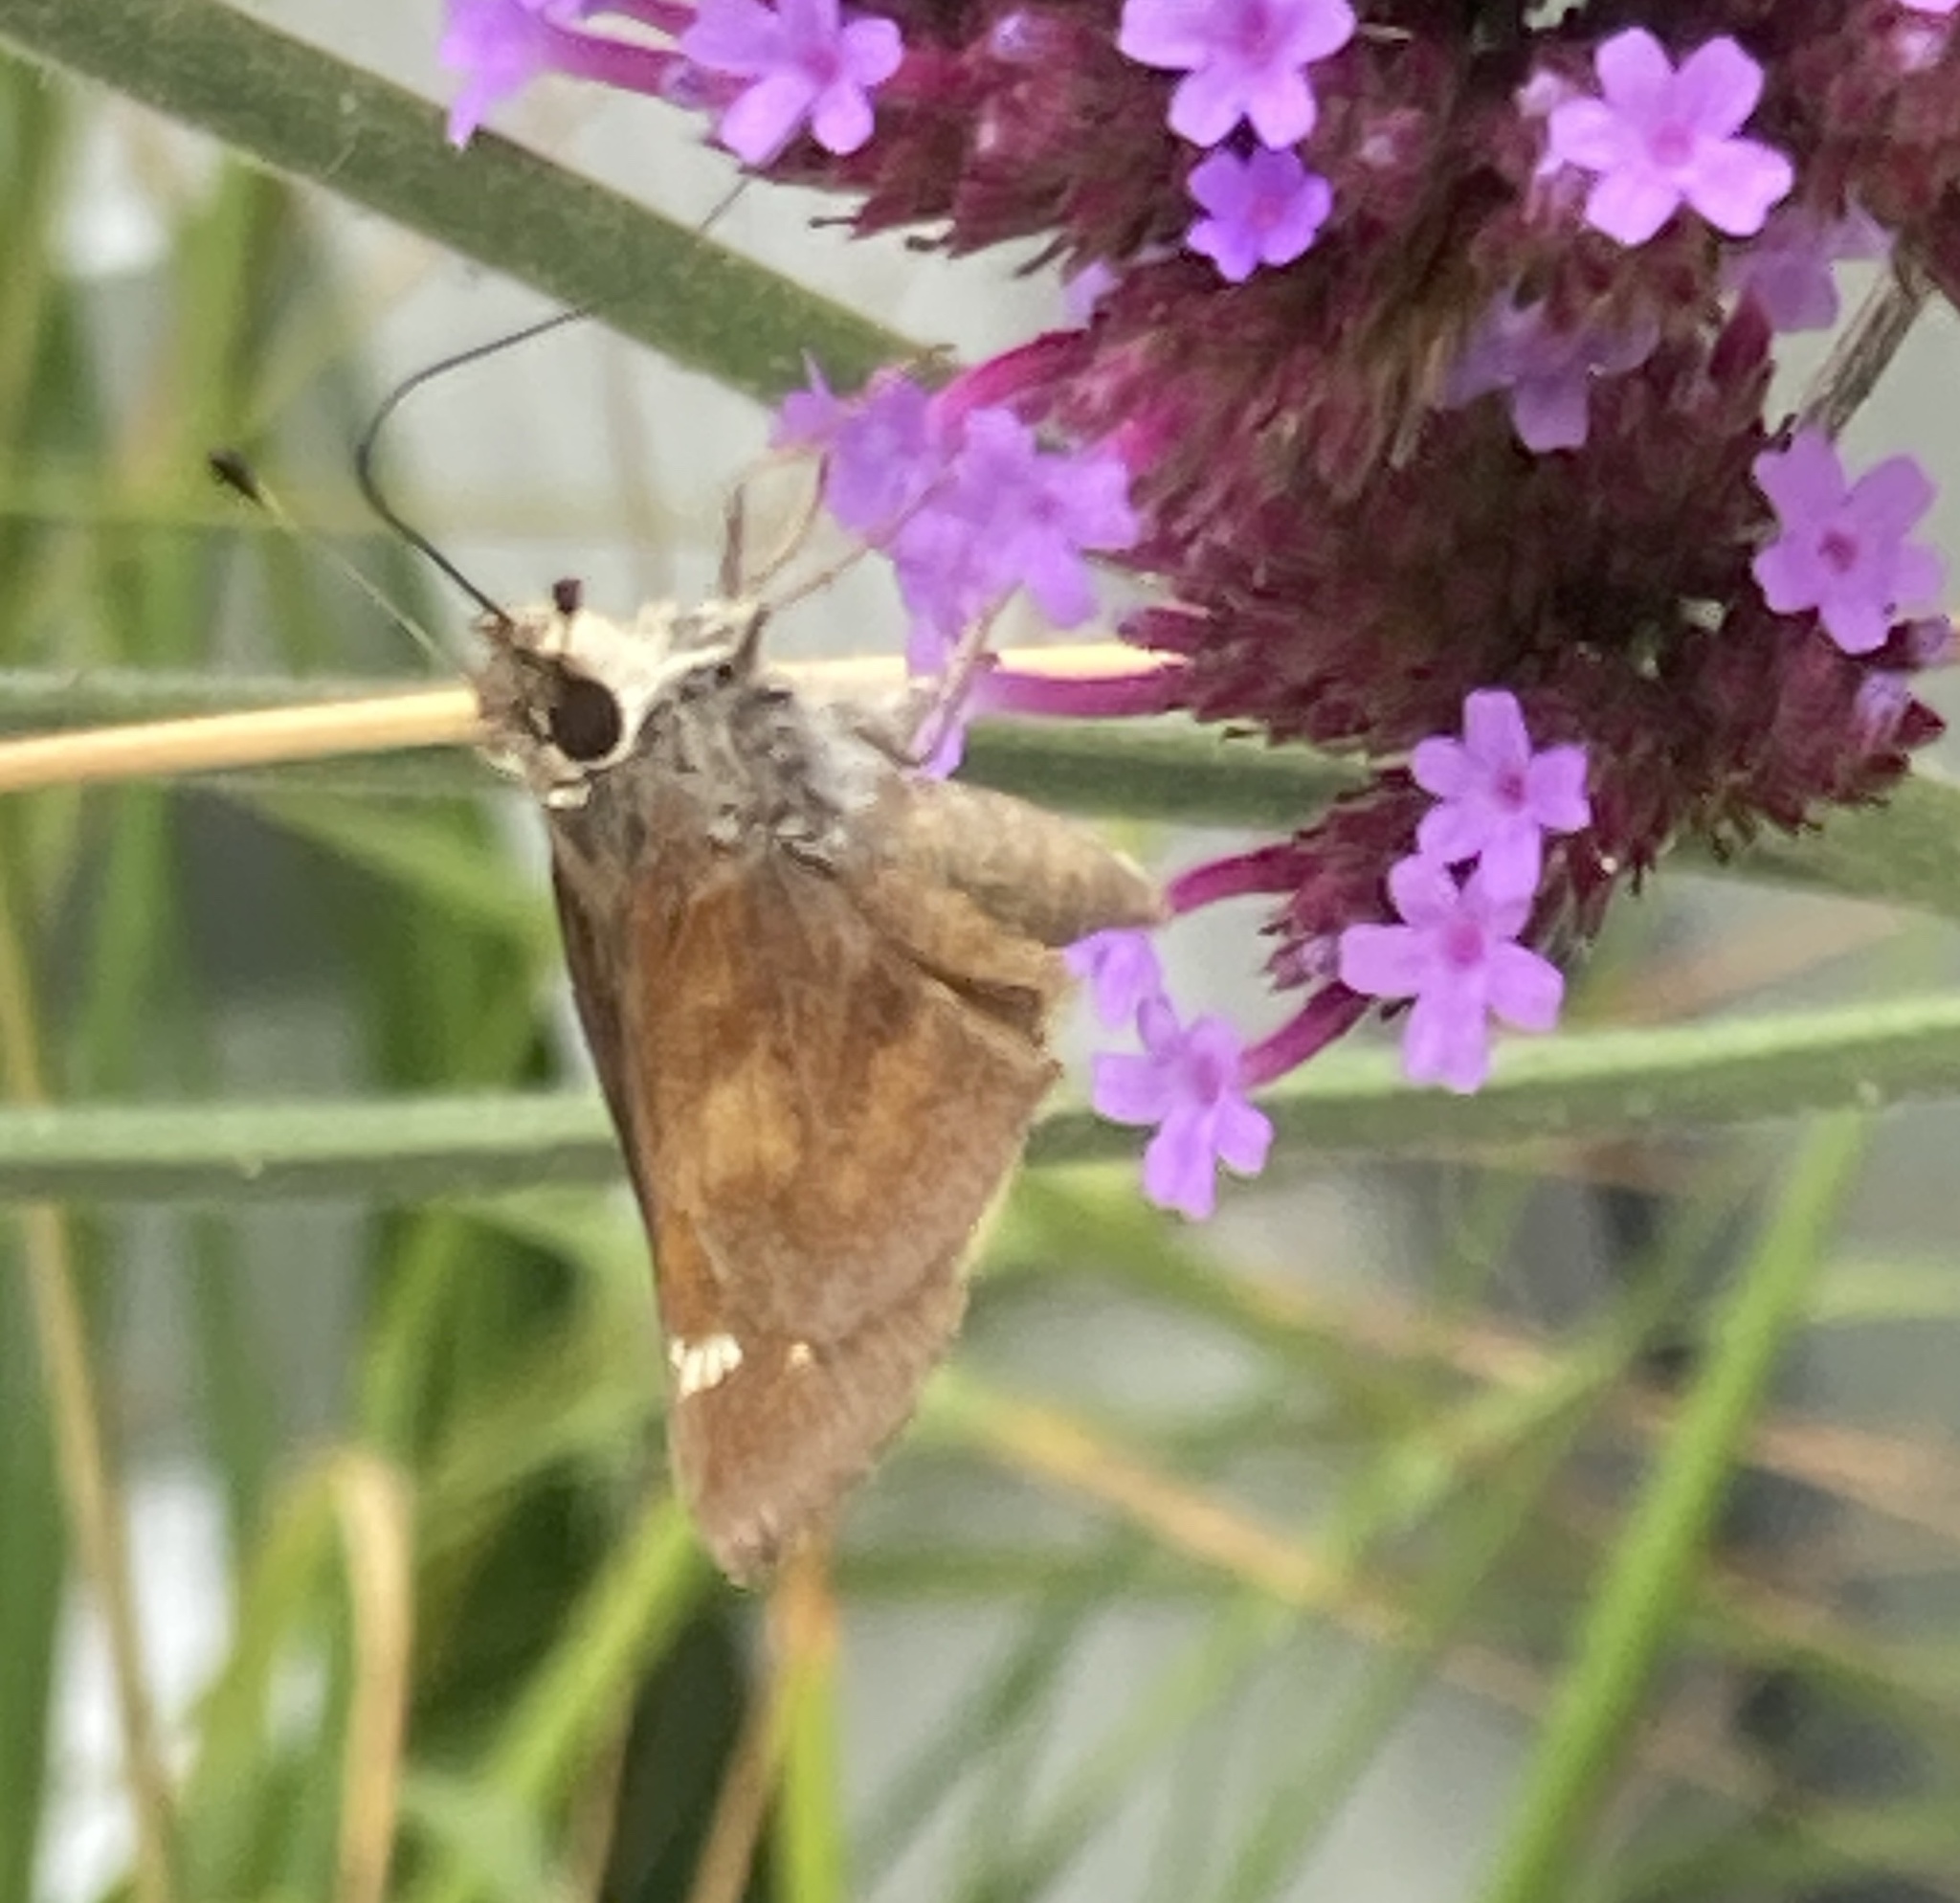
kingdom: Animalia
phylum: Arthropoda
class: Insecta
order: Lepidoptera
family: Hesperiidae
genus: Lon
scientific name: Lon melane
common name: Umber skipper
